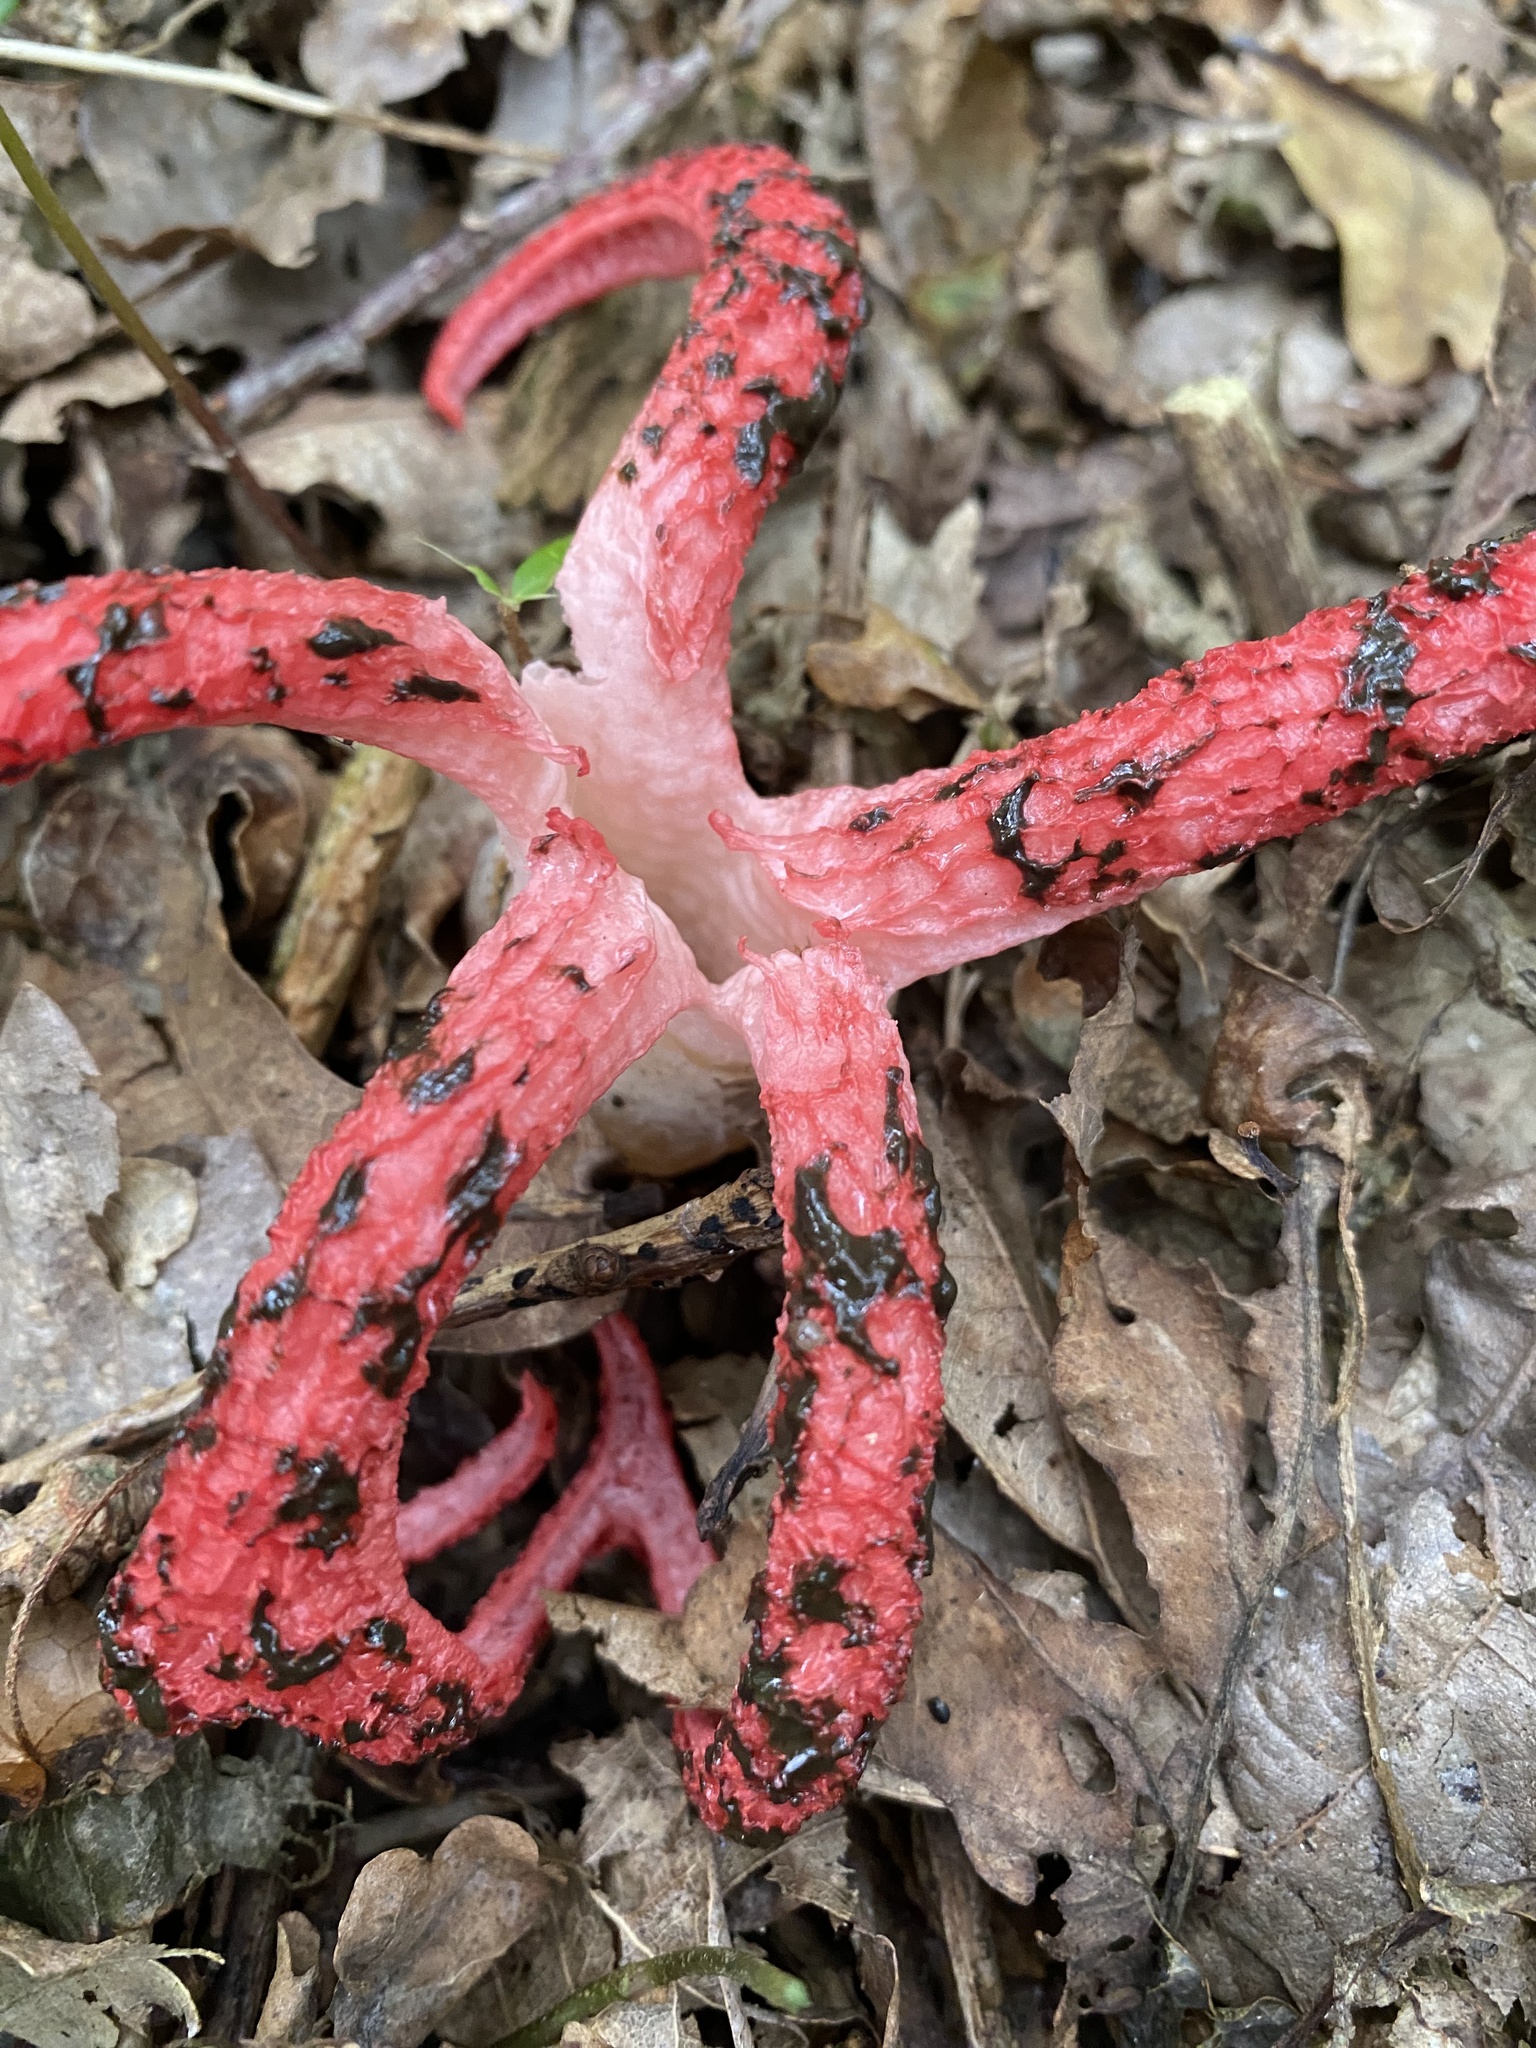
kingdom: Fungi
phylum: Basidiomycota
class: Agaricomycetes
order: Phallales
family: Phallaceae
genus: Clathrus
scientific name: Clathrus archeri
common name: Devil's fingers
